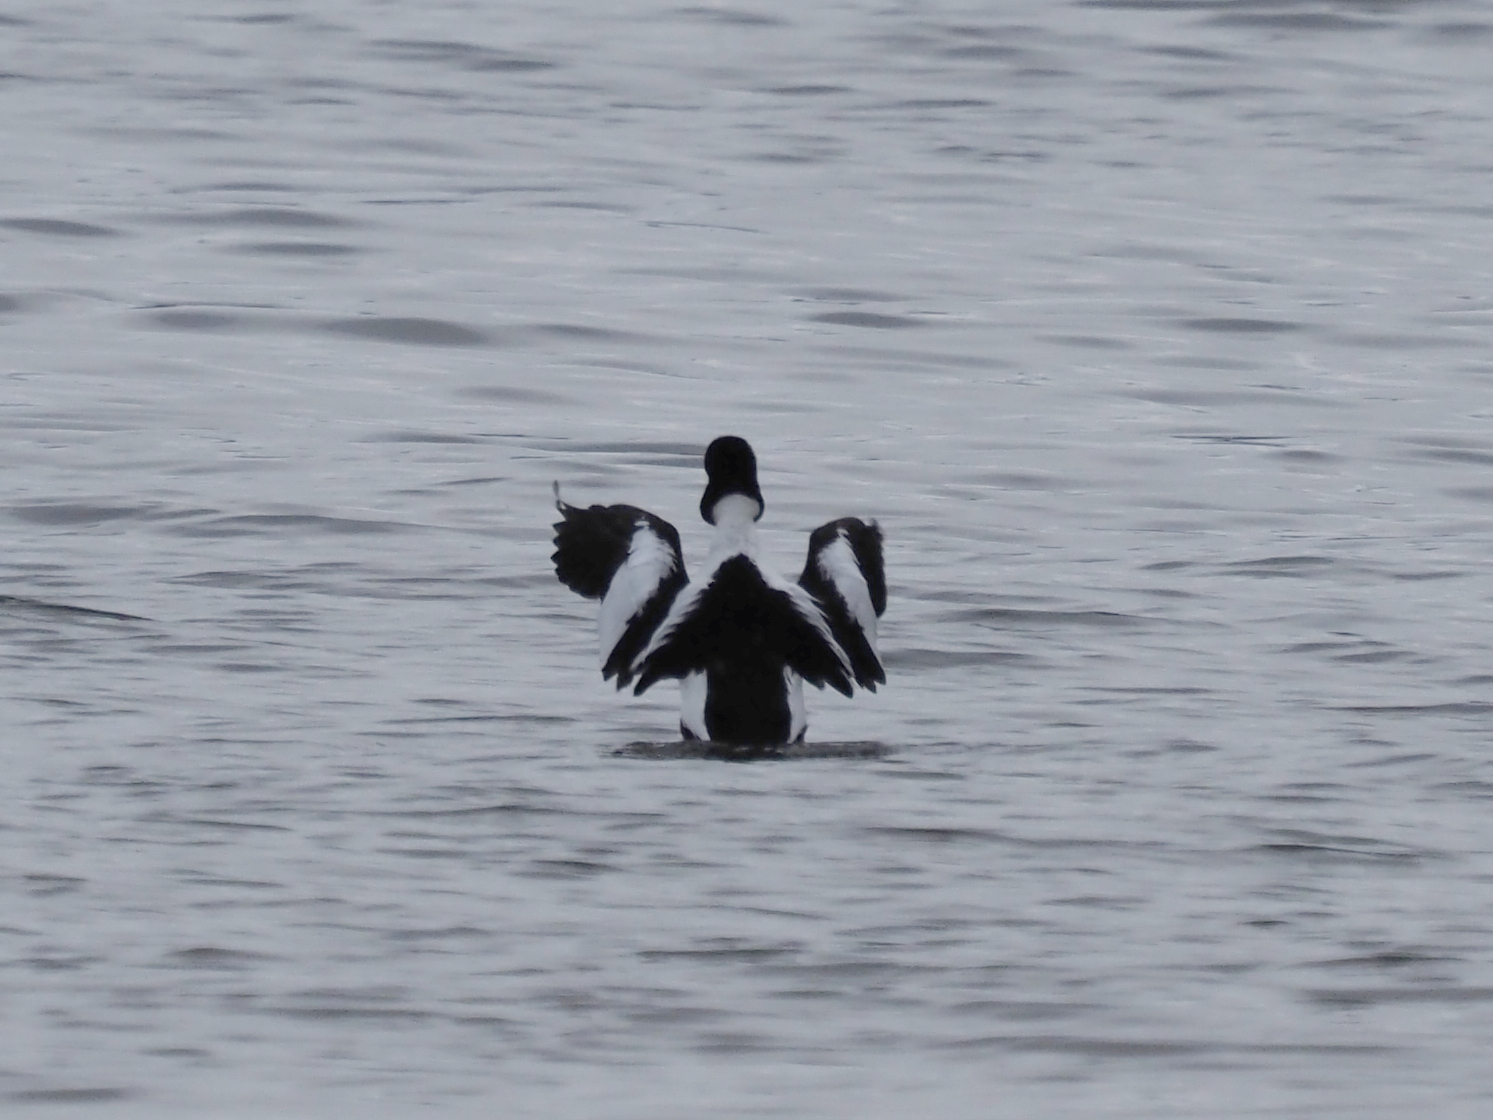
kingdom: Animalia
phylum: Chordata
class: Aves
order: Anseriformes
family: Anatidae
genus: Bucephala
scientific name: Bucephala clangula
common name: Common goldeneye
